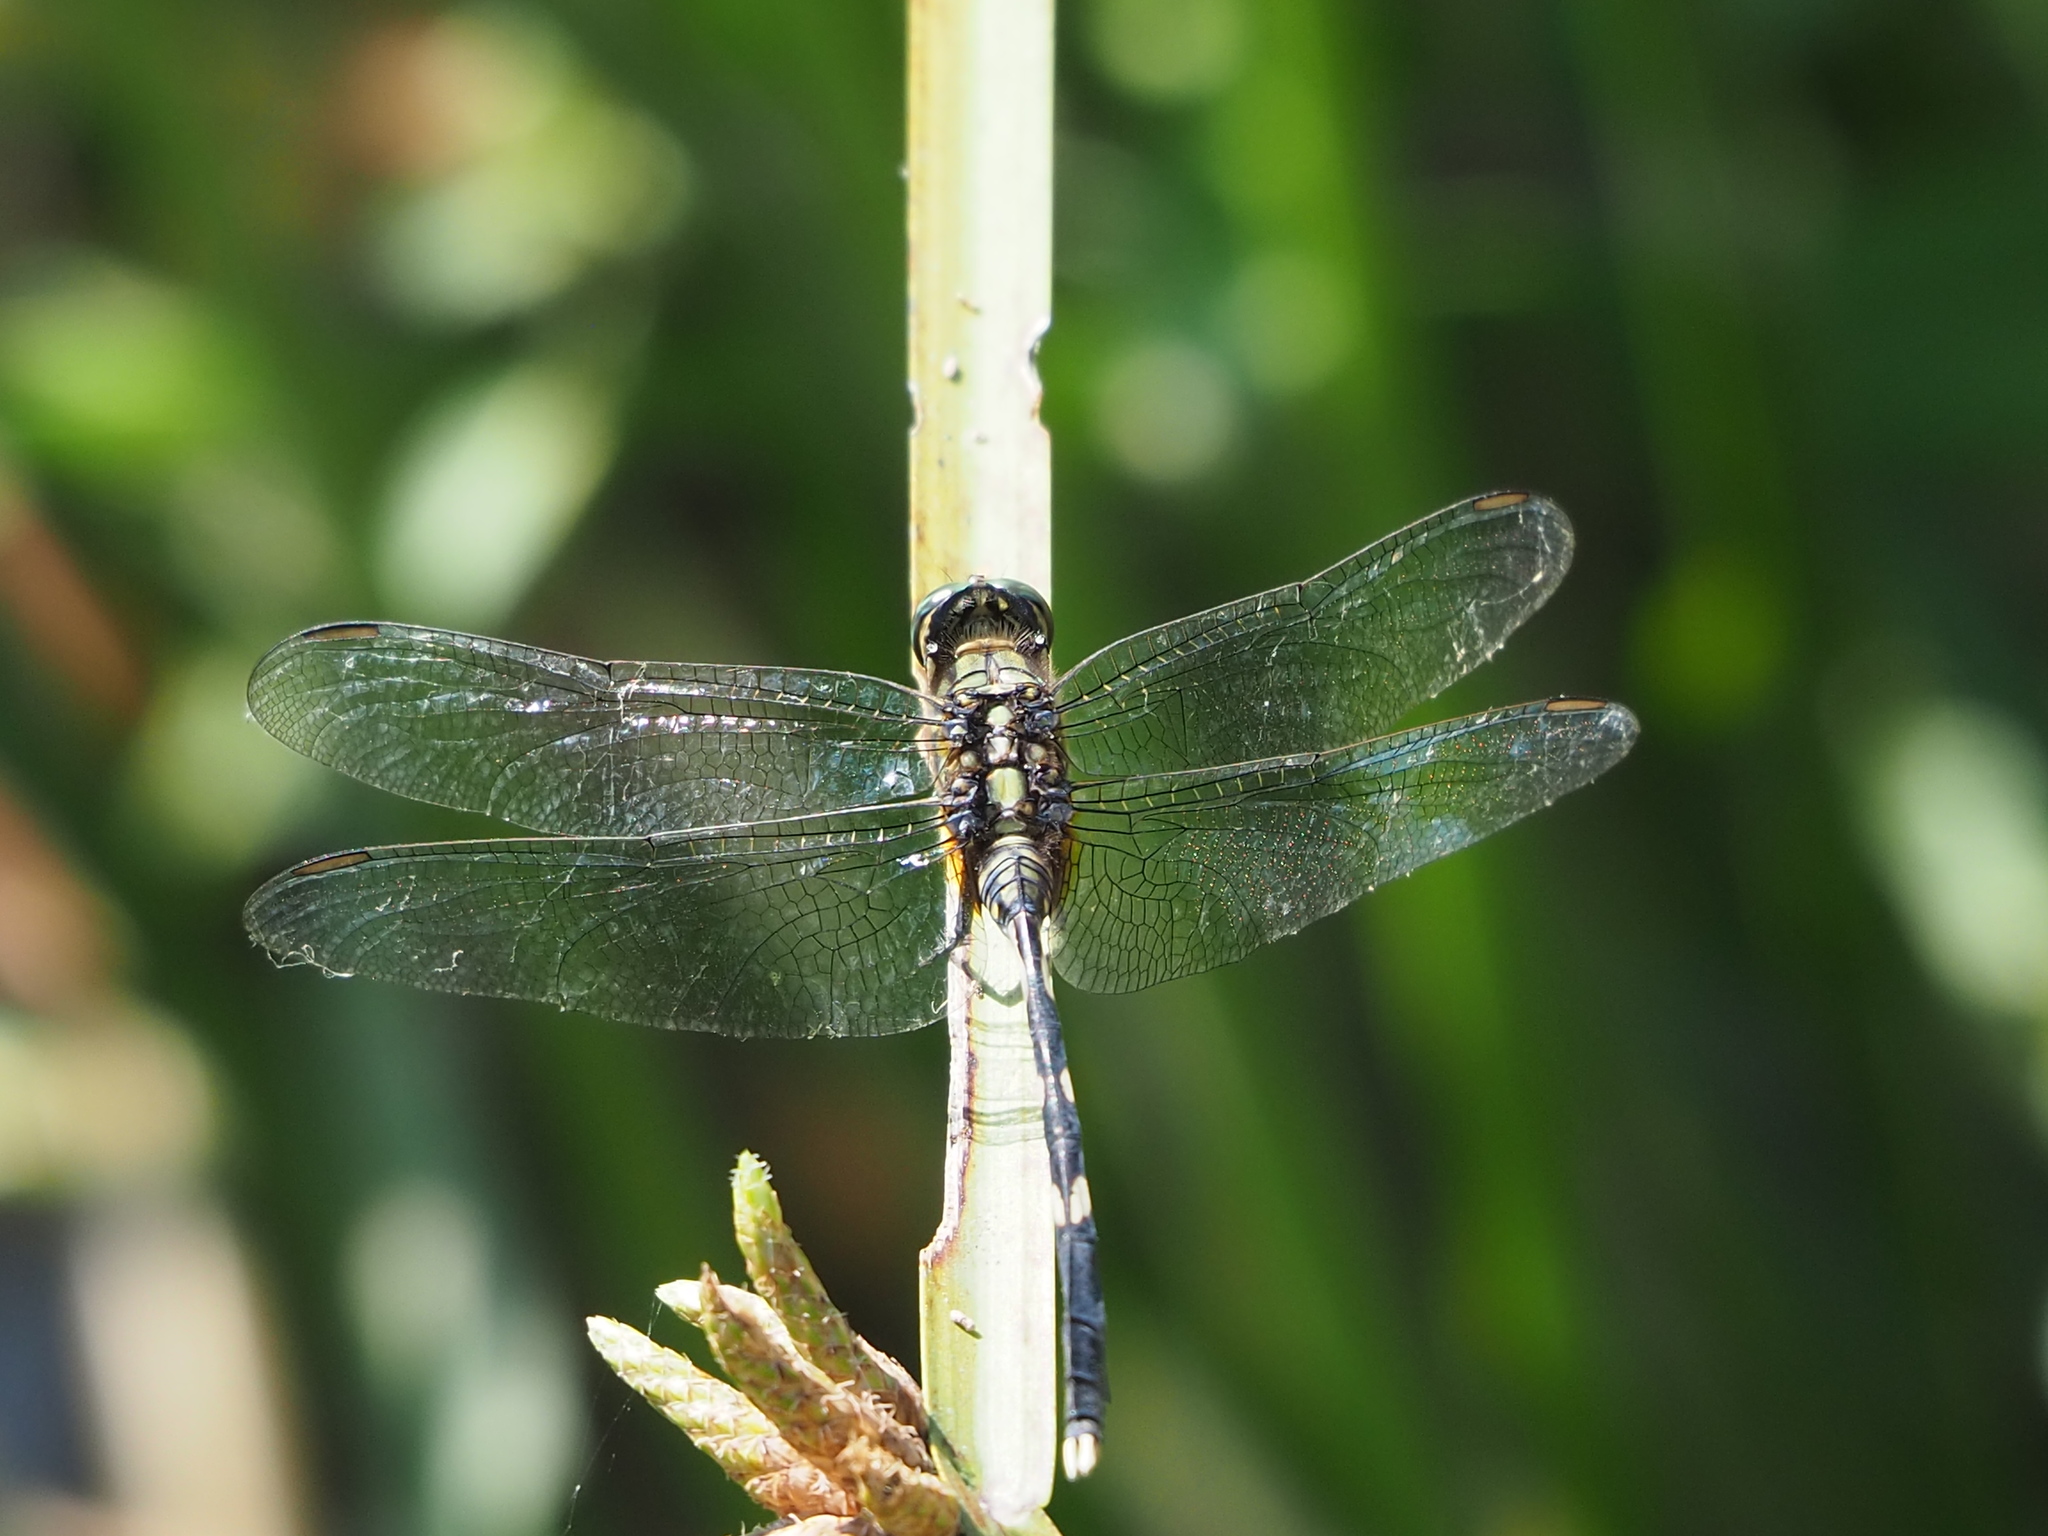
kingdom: Animalia
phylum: Arthropoda
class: Insecta
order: Odonata
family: Libellulidae
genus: Orthetrum
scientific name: Orthetrum sabina
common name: Slender skimmer
